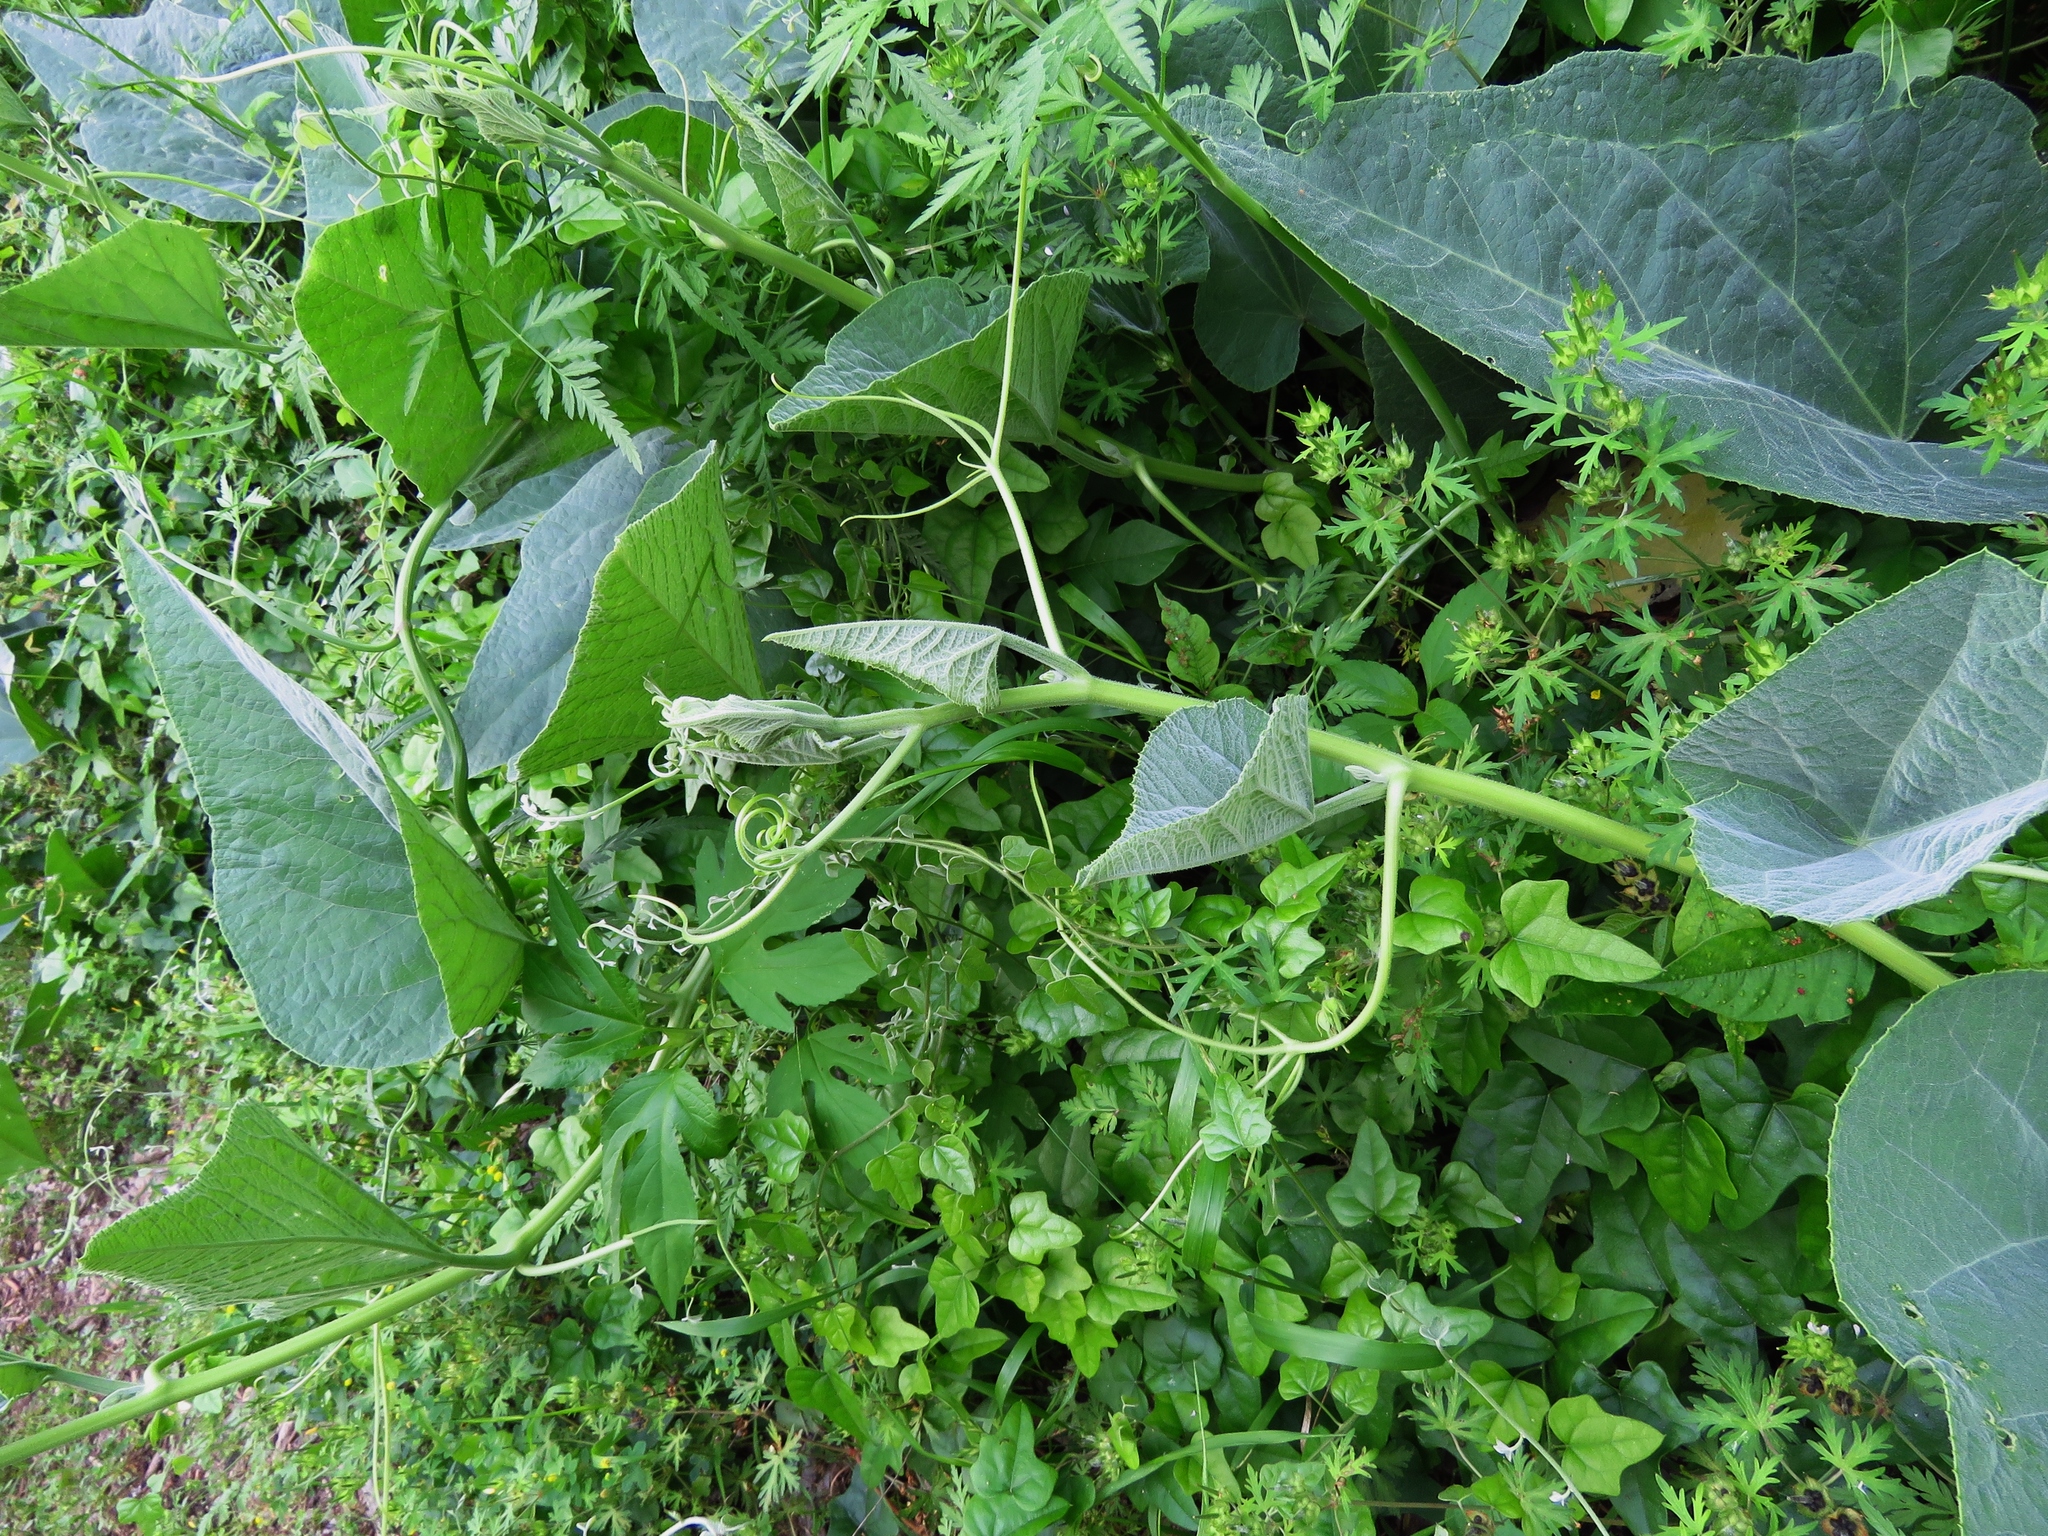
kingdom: Plantae
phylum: Tracheophyta
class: Magnoliopsida
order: Cucurbitales
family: Cucurbitaceae
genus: Cucurbita
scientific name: Cucurbita foetidissima
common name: Buffalo gourd
